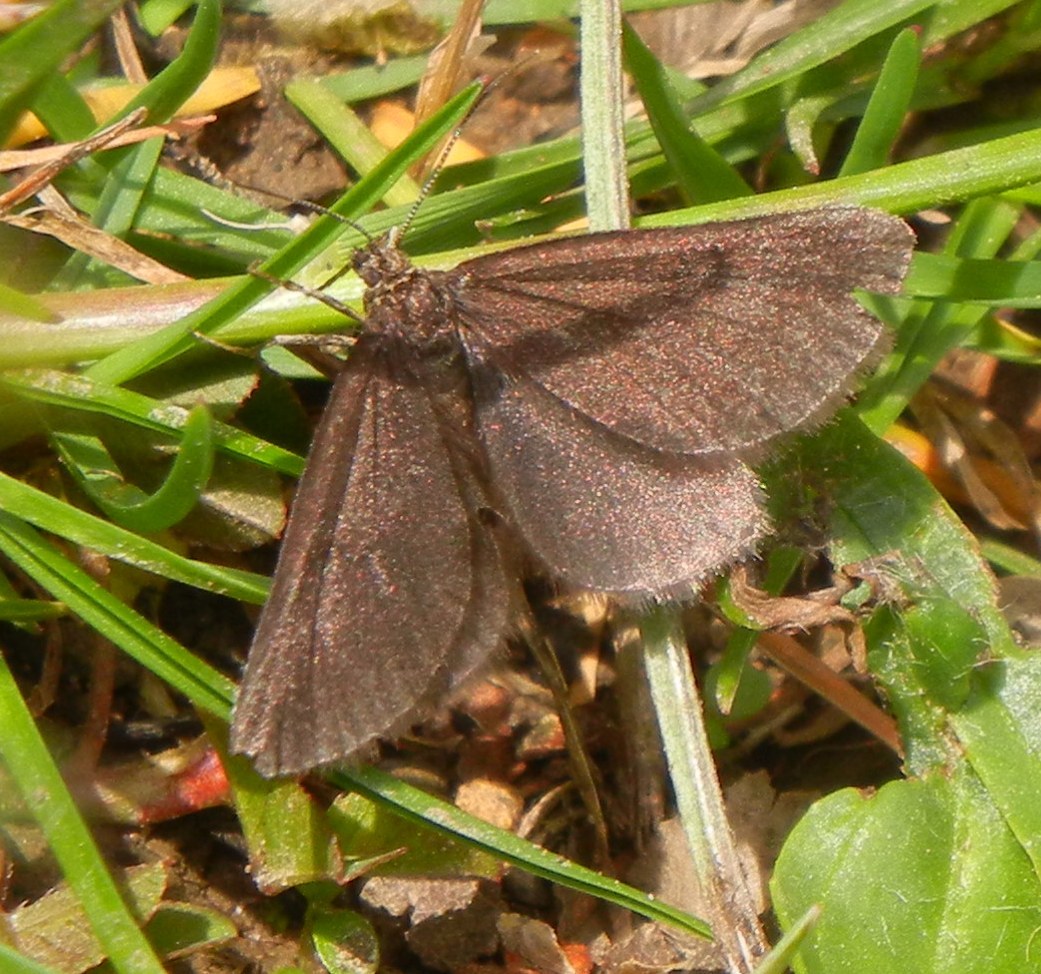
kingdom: Animalia
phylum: Arthropoda
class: Insecta
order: Lepidoptera
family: Geometridae
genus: Odezia
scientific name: Odezia atrata
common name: Chimney sweeper
